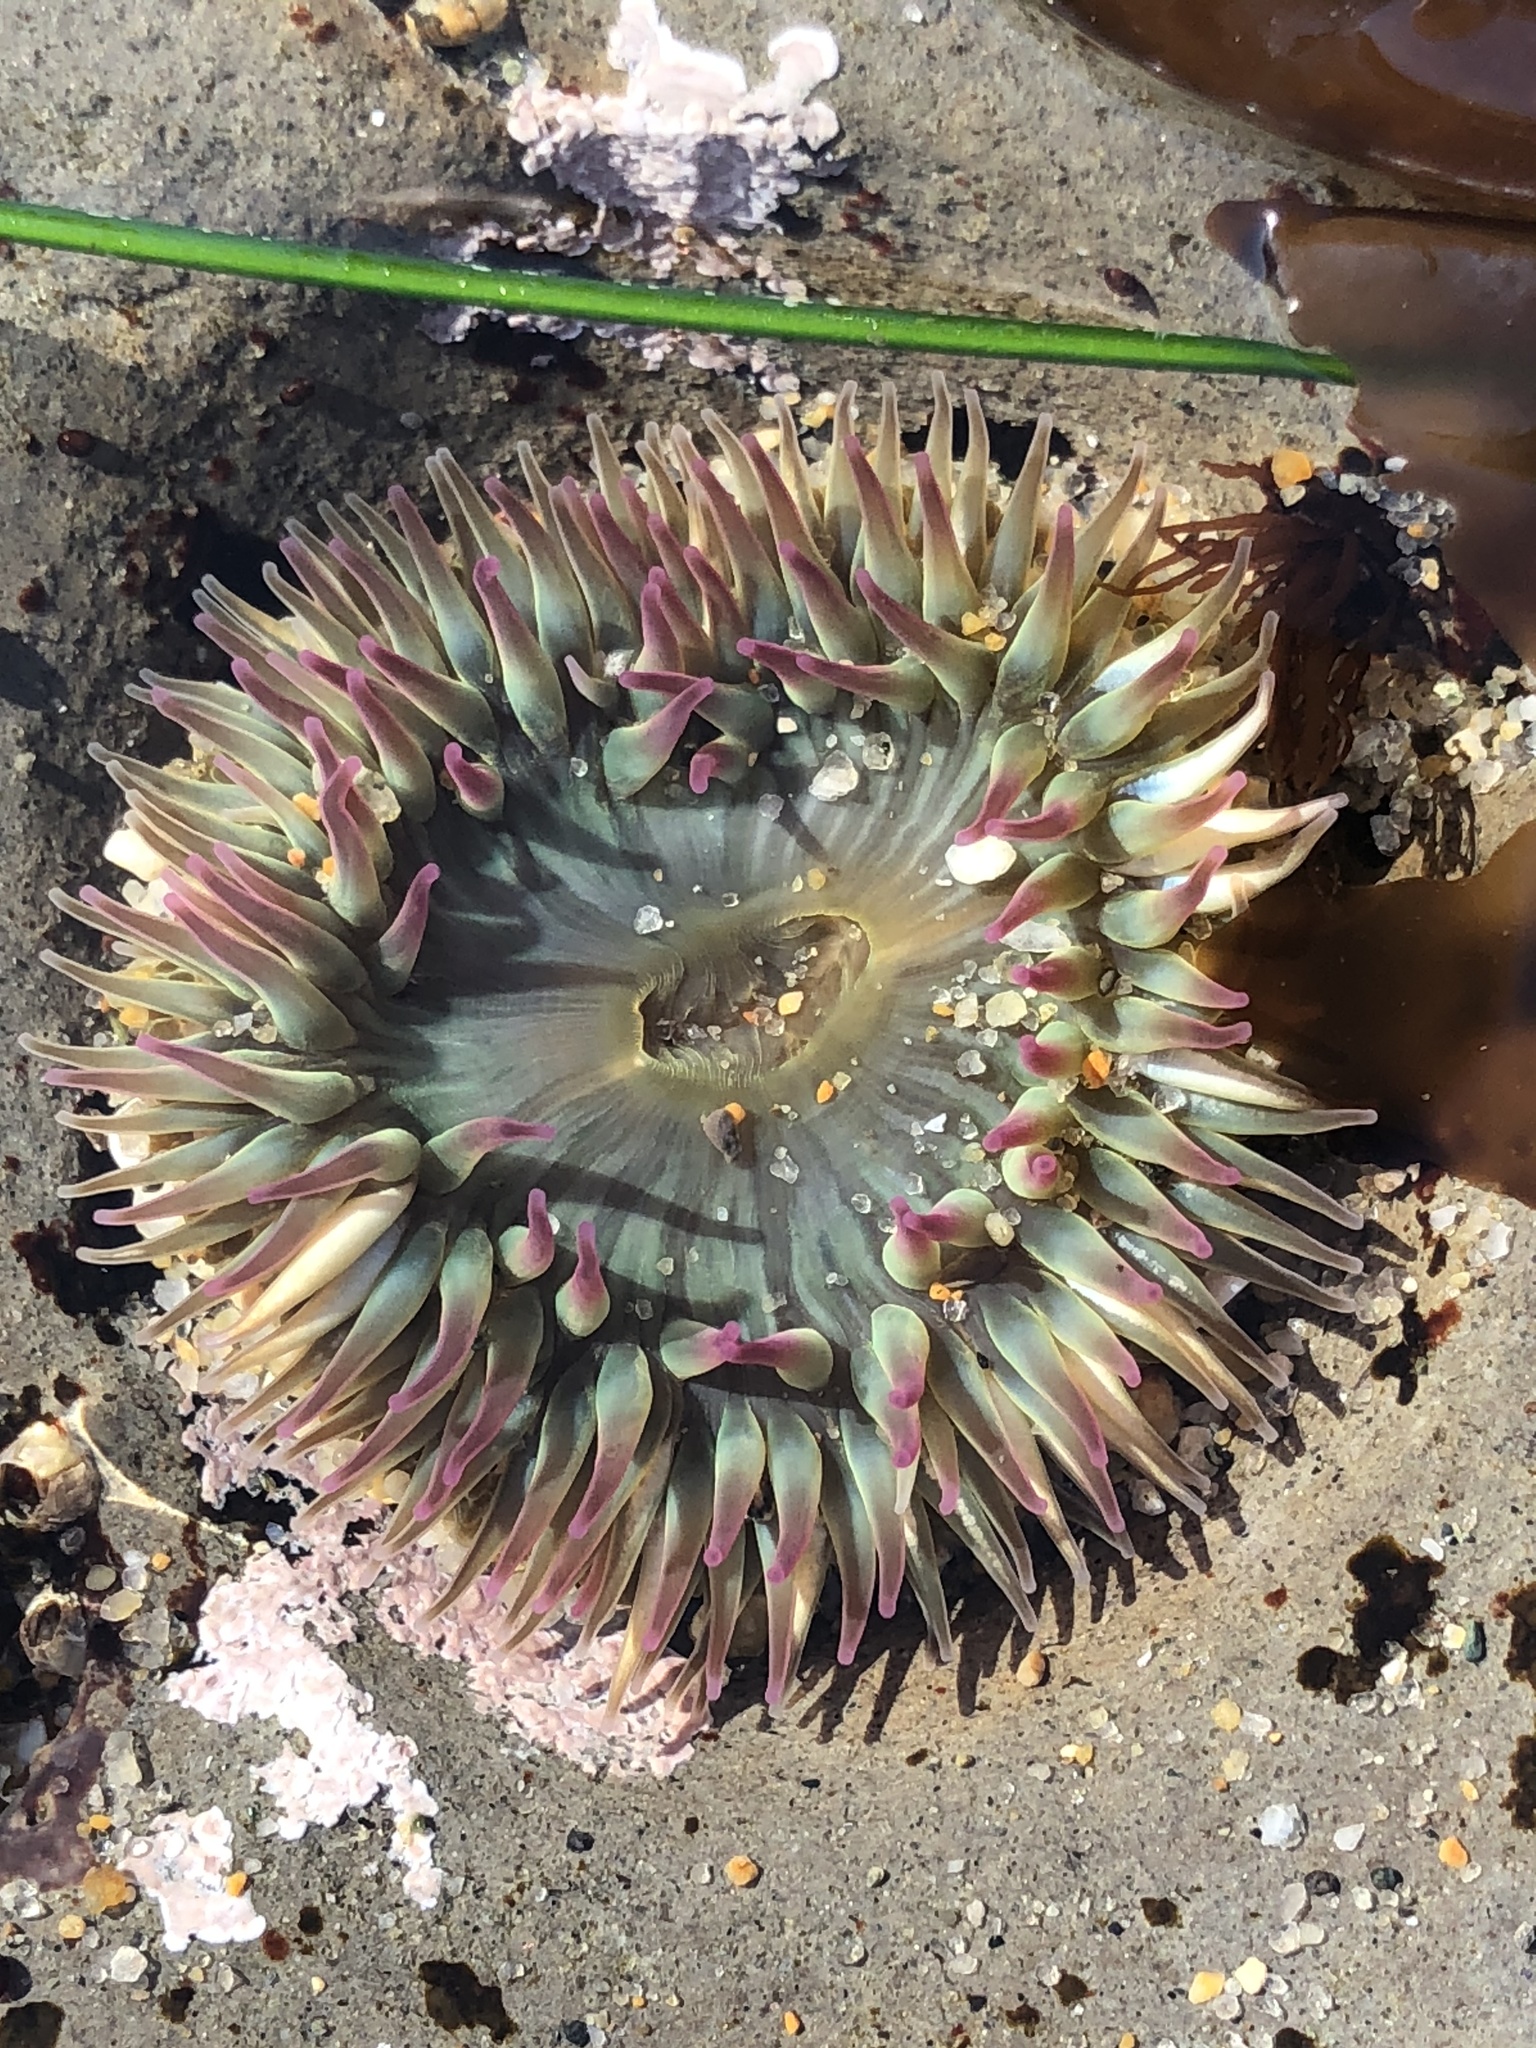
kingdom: Animalia
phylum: Cnidaria
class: Anthozoa
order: Actiniaria
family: Actiniidae
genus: Anthopleura
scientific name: Anthopleura elegantissima
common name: Clonal anemone
